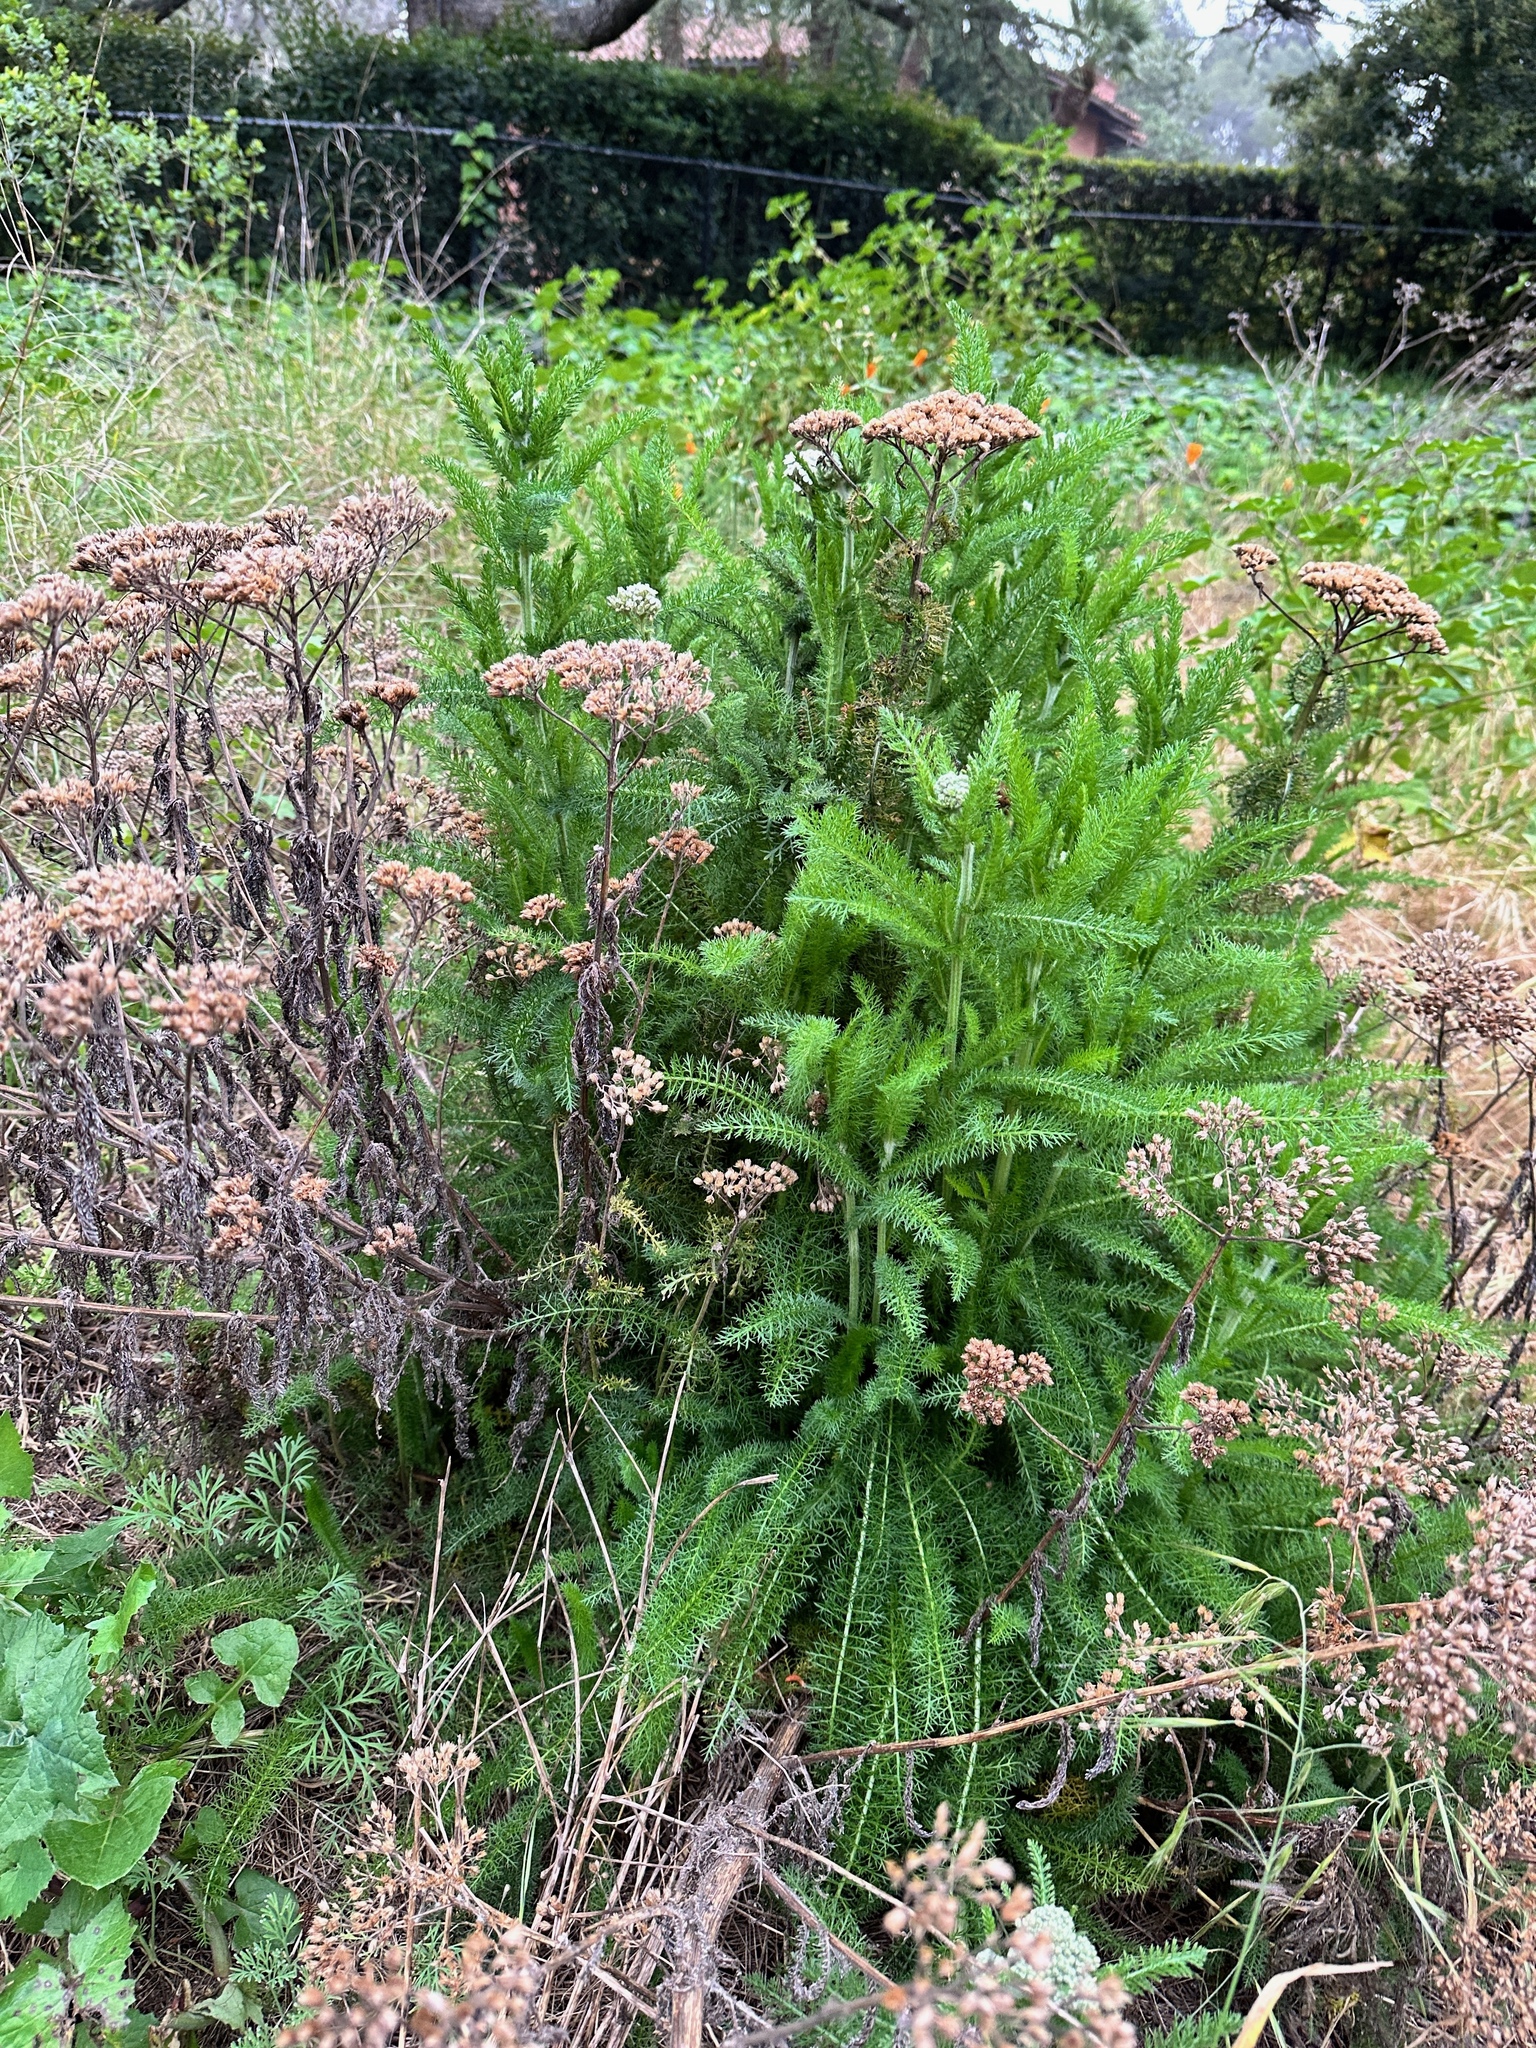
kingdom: Plantae
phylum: Tracheophyta
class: Magnoliopsida
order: Asterales
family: Asteraceae
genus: Achillea
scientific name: Achillea millefolium
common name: Yarrow
